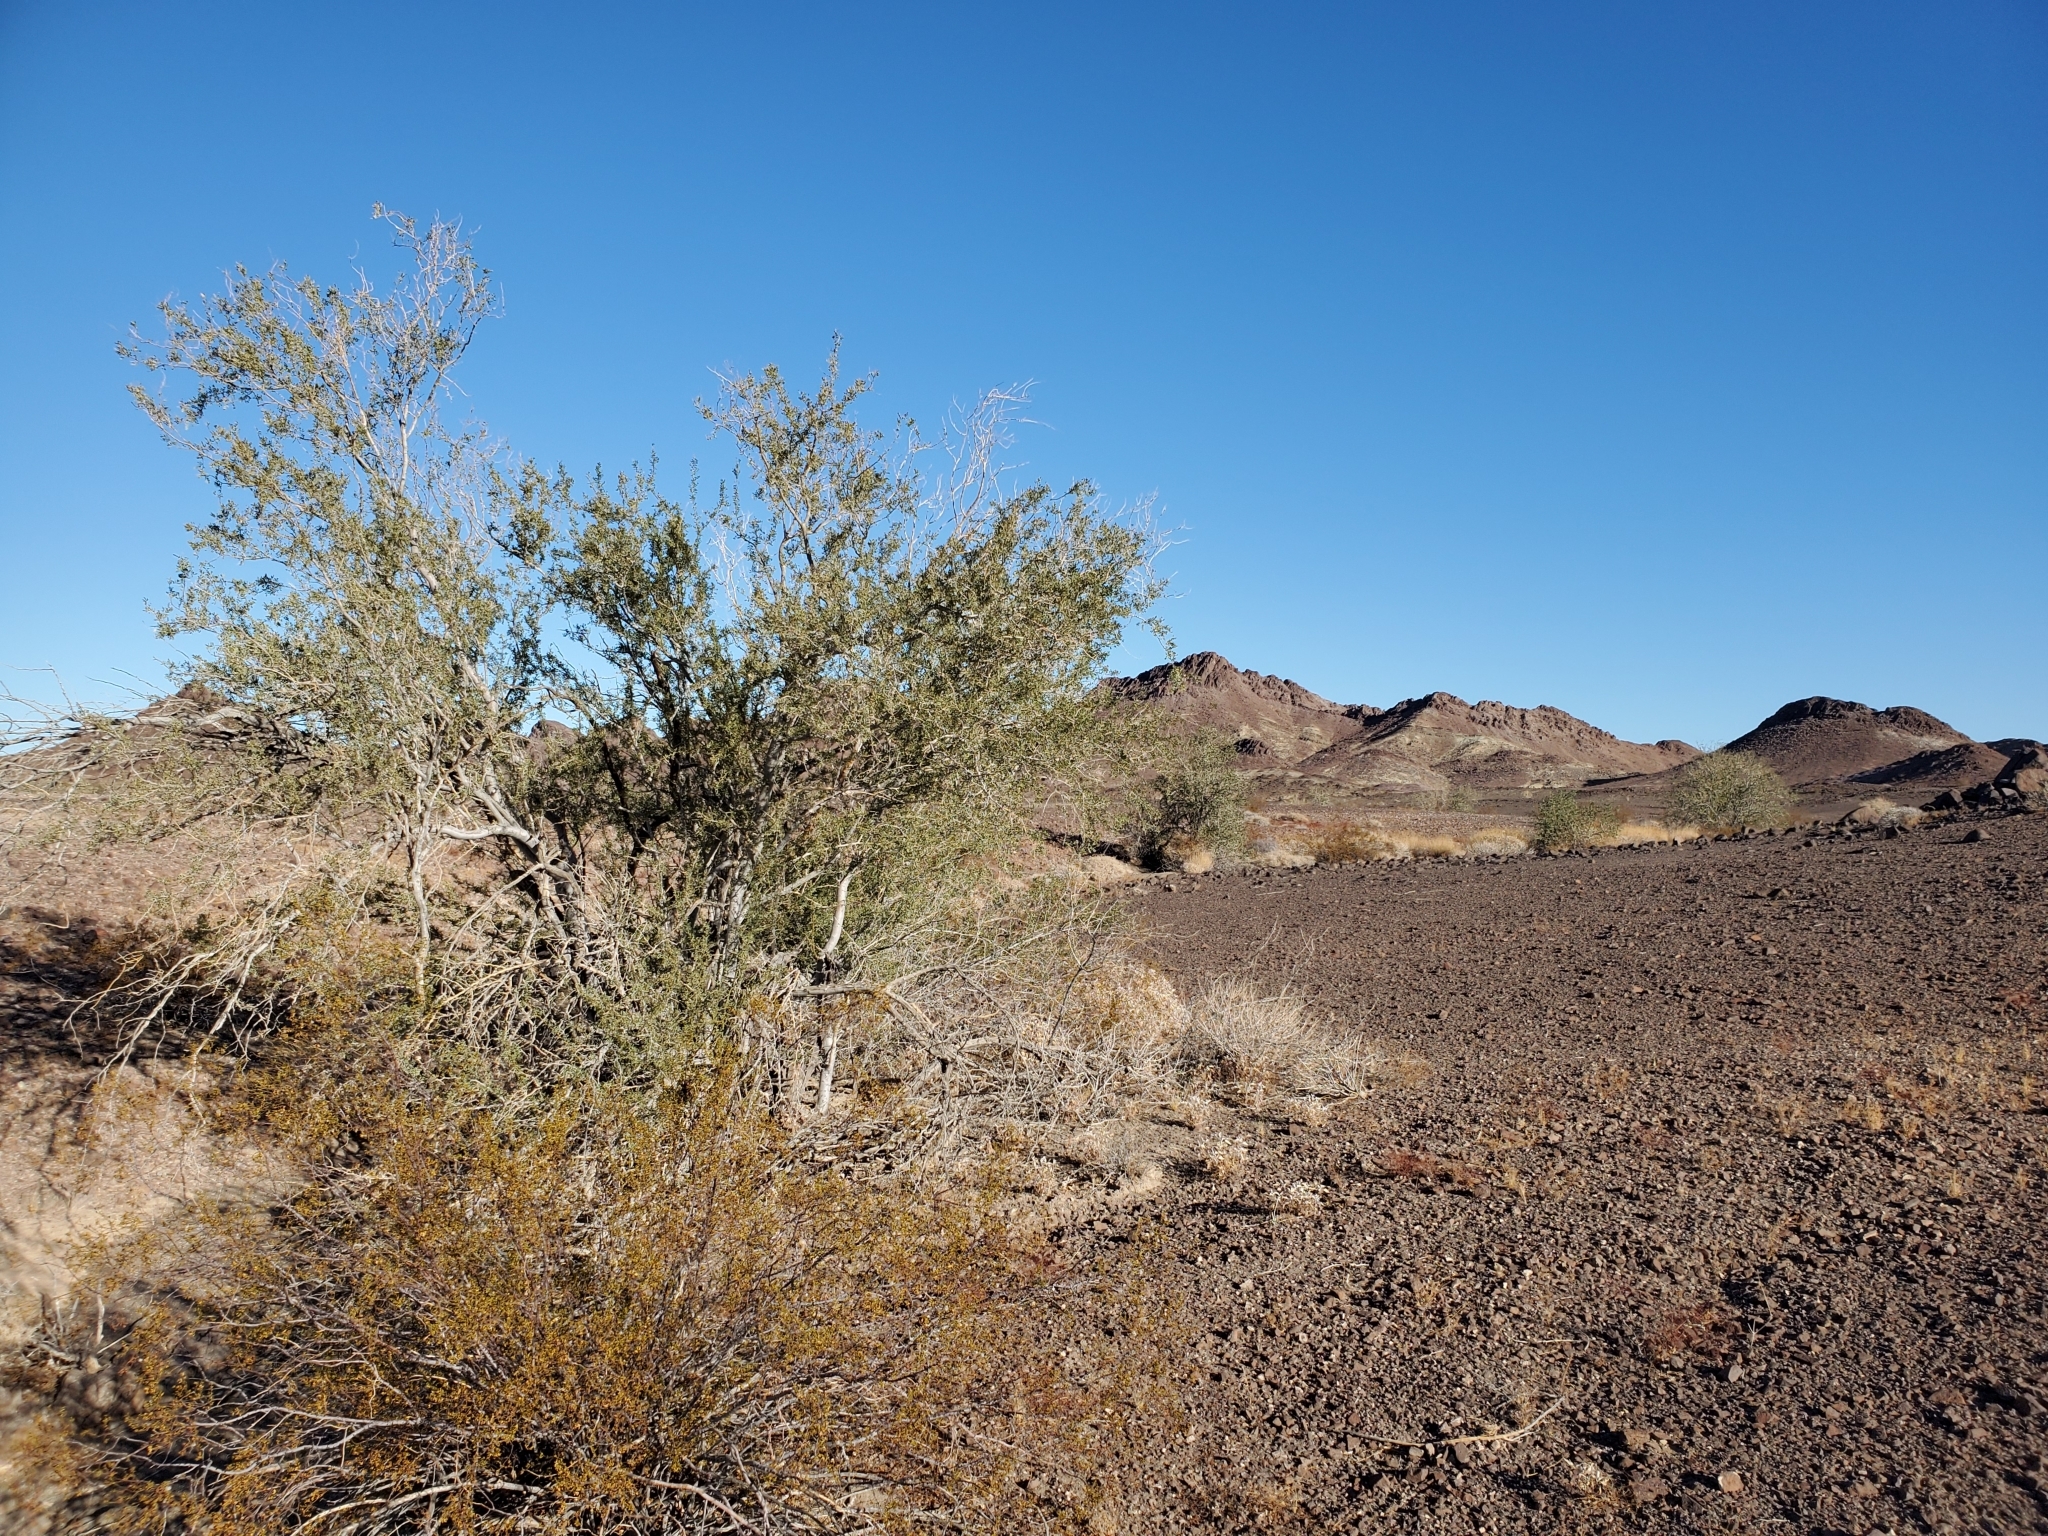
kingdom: Plantae
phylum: Tracheophyta
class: Magnoliopsida
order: Fabales
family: Fabaceae
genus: Olneya
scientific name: Olneya tesota
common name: Desert ironwood
